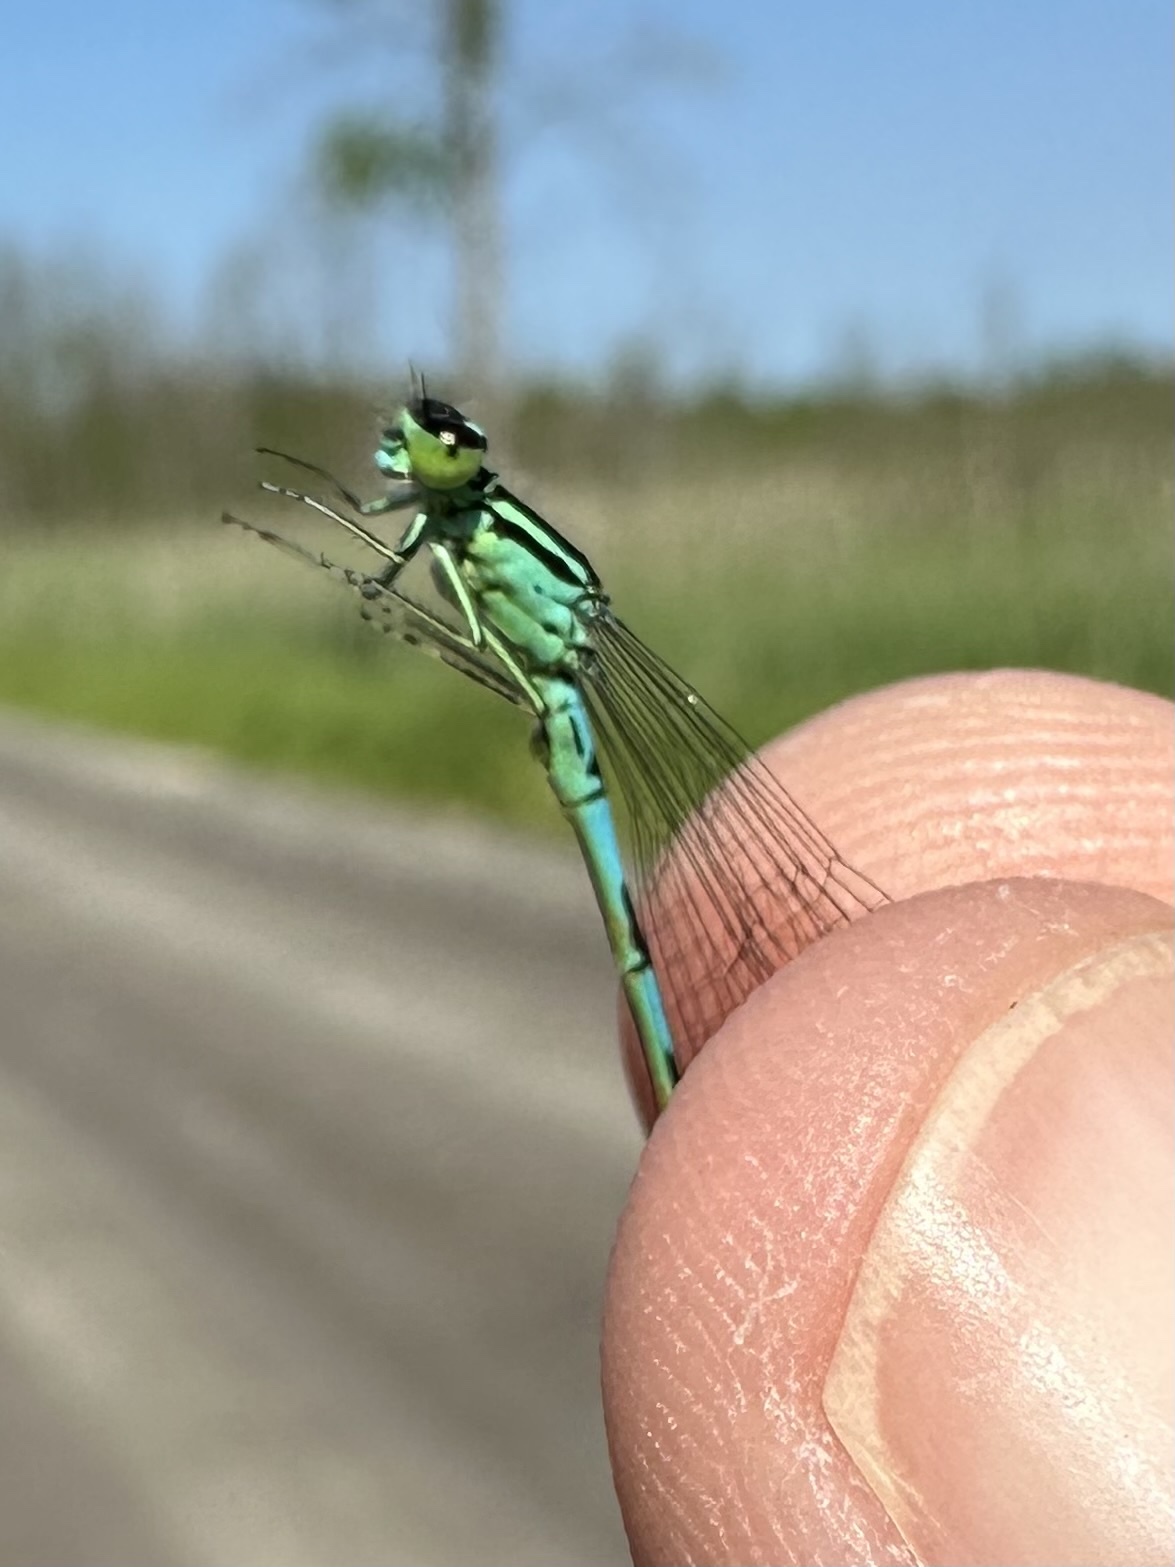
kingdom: Animalia
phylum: Arthropoda
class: Insecta
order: Odonata
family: Coenagrionidae
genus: Coenagrion
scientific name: Coenagrion resolutum
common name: Taiga bluet
